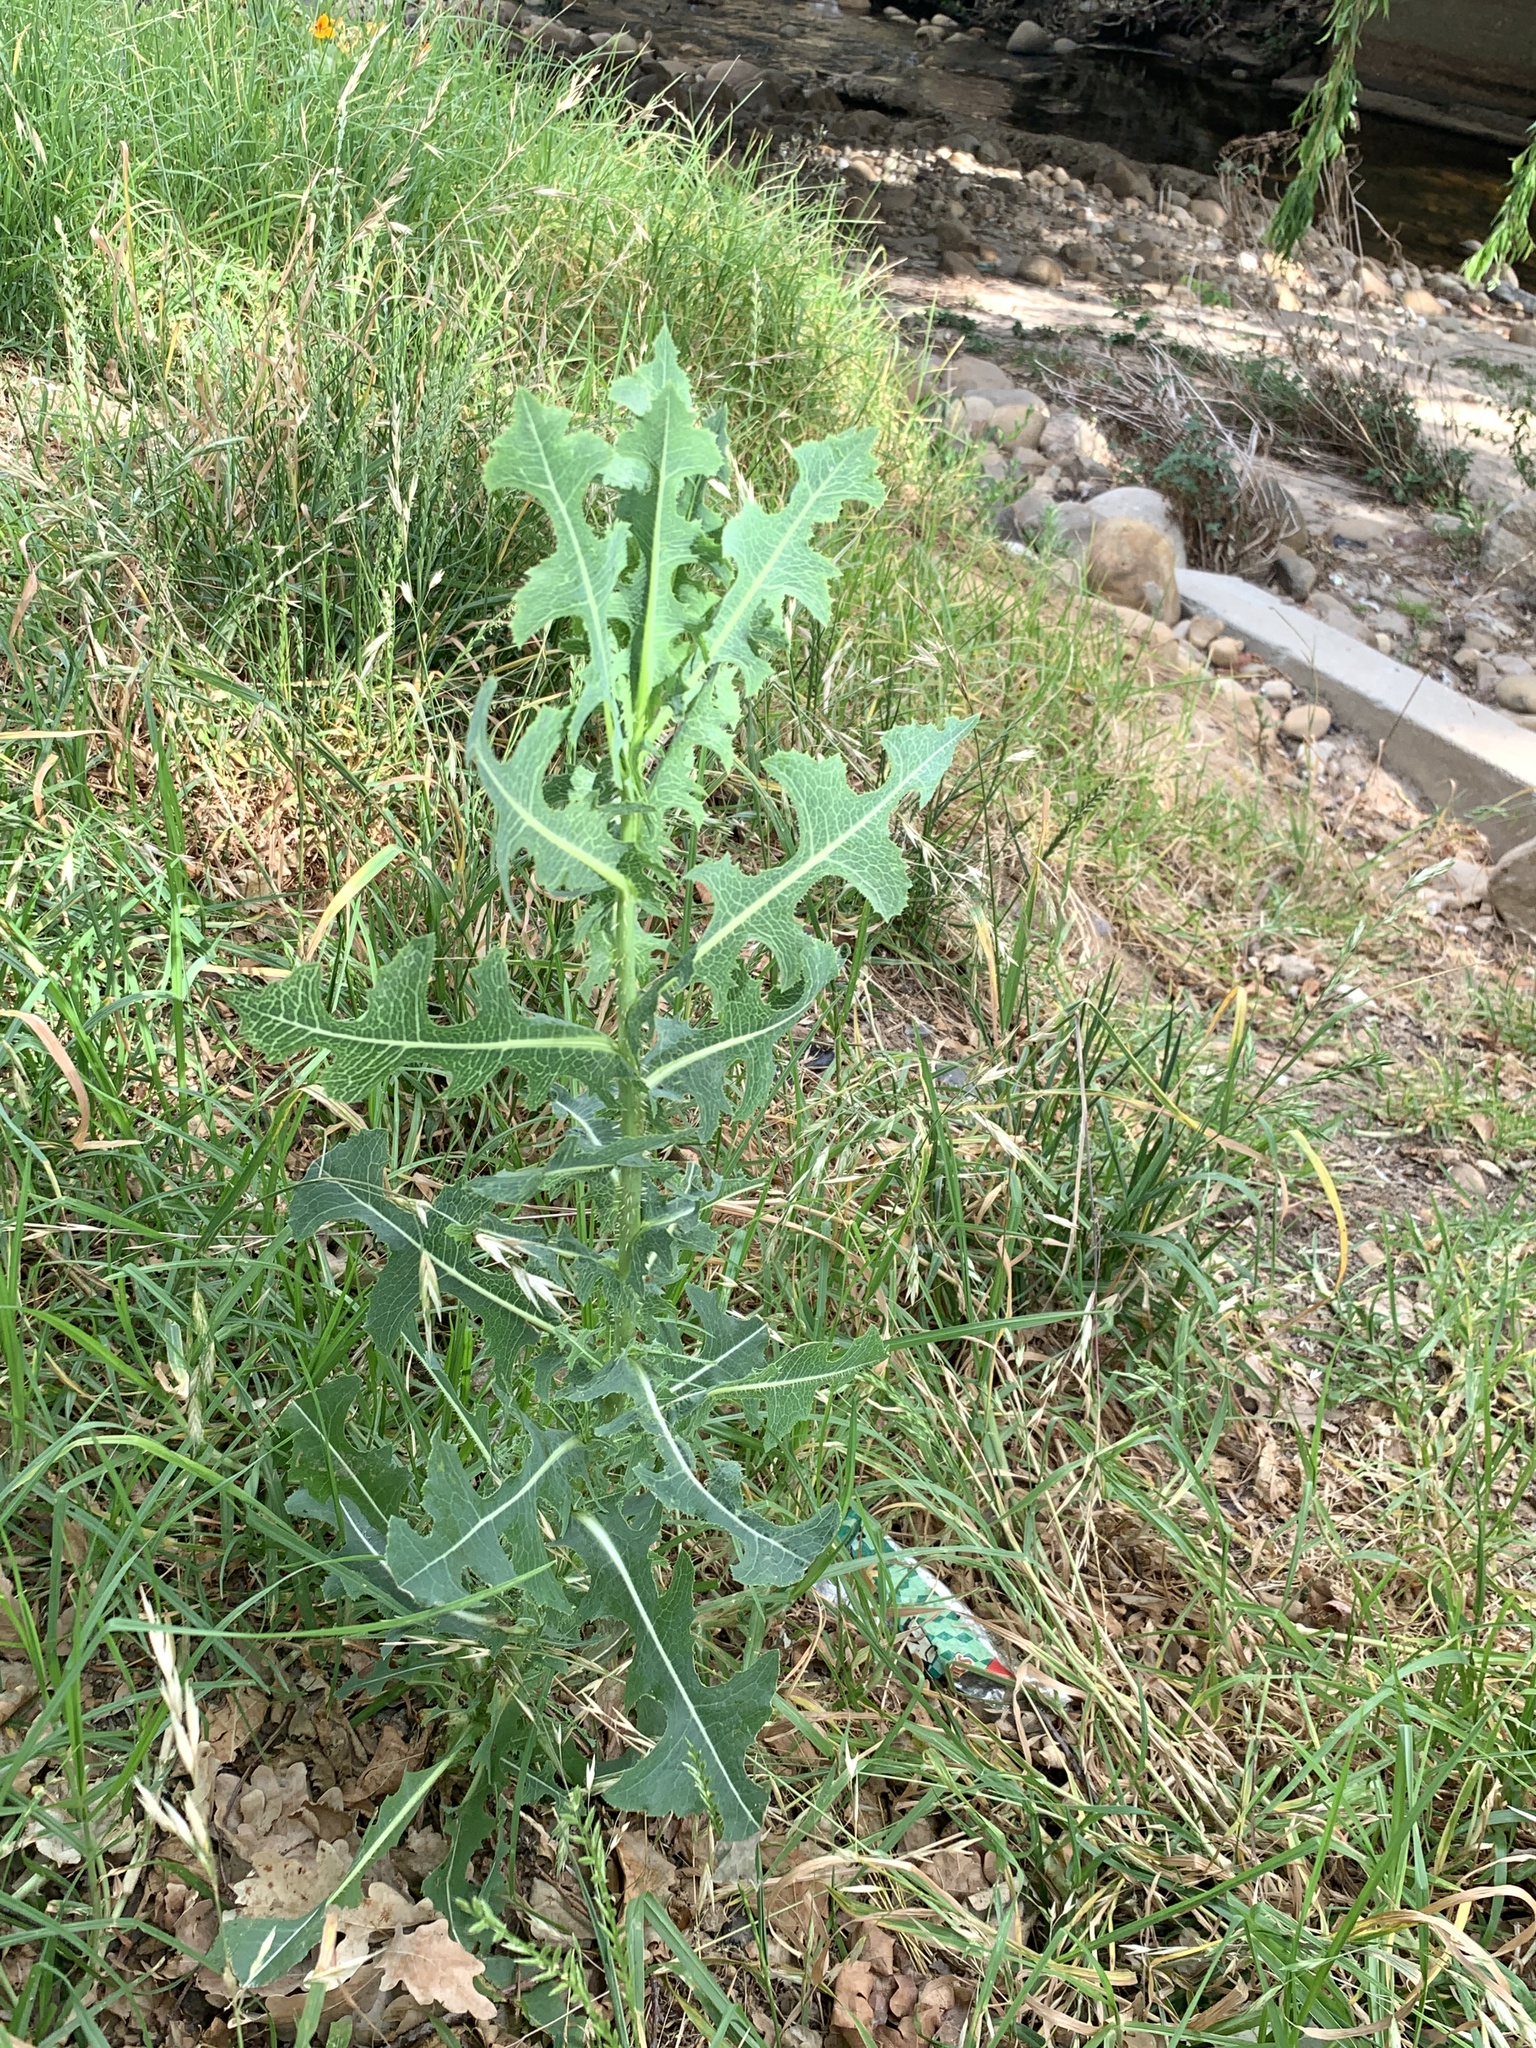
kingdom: Plantae
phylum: Tracheophyta
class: Magnoliopsida
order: Asterales
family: Asteraceae
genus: Lactuca
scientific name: Lactuca serriola
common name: Prickly lettuce
